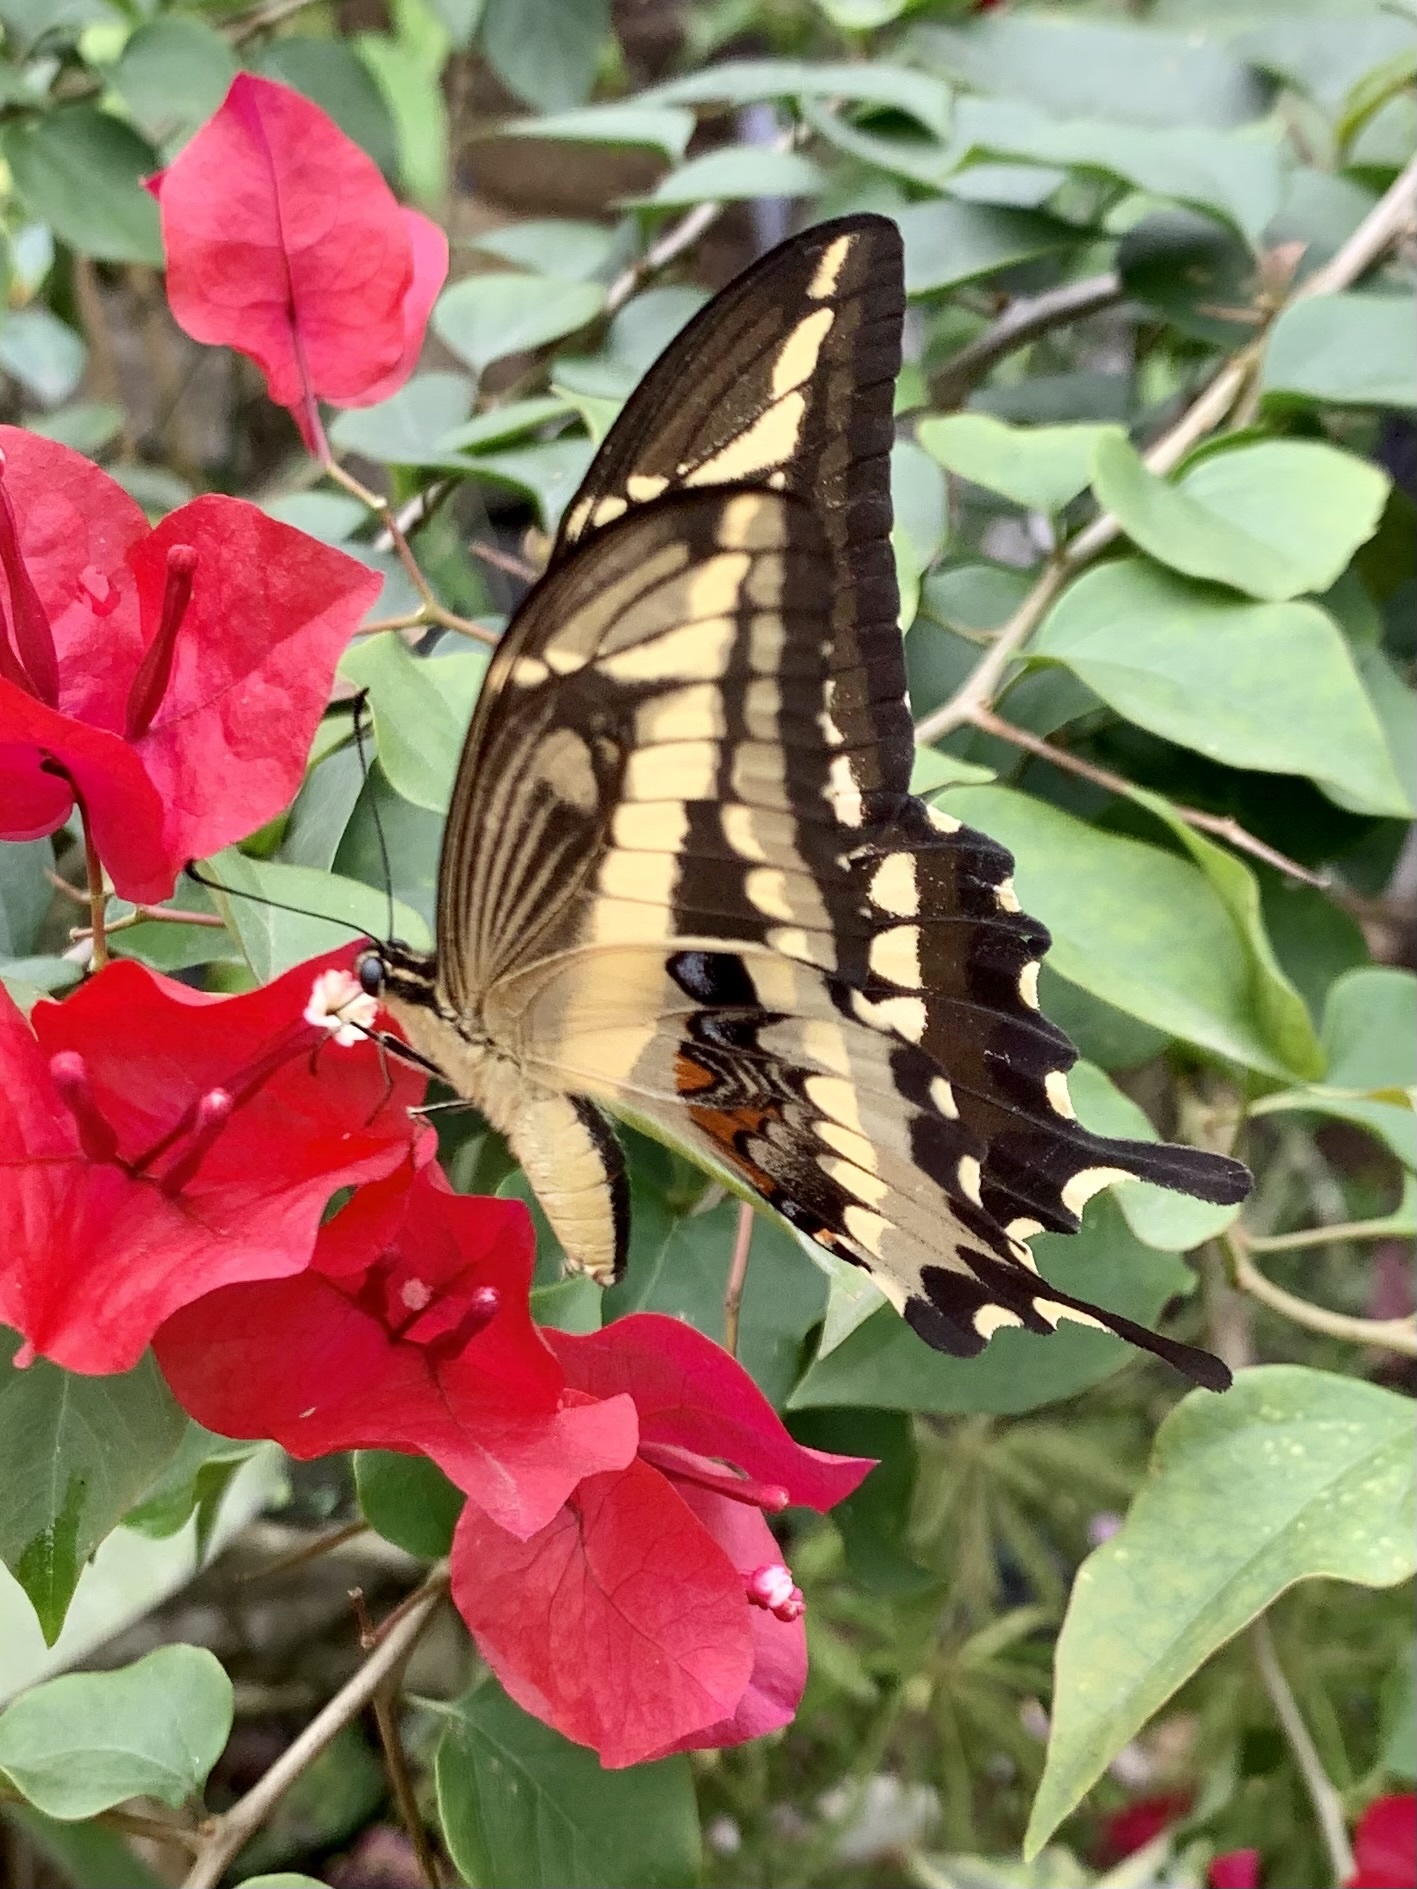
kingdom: Animalia
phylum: Arthropoda
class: Insecta
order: Lepidoptera
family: Papilionidae
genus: Heraclides
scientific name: Heraclides pallas
